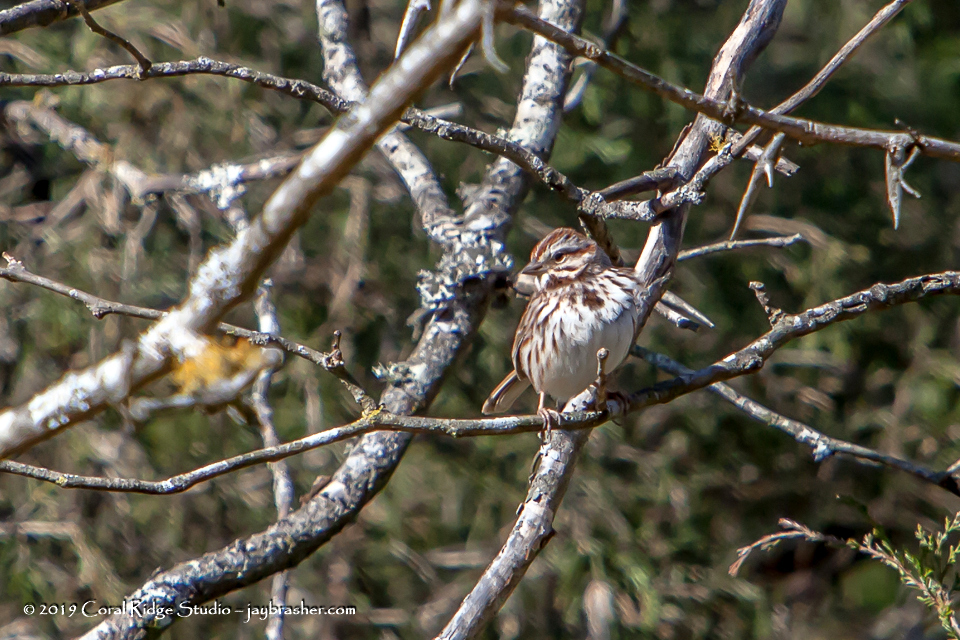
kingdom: Animalia
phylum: Chordata
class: Aves
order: Passeriformes
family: Passerellidae
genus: Melospiza
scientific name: Melospiza melodia
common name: Song sparrow
